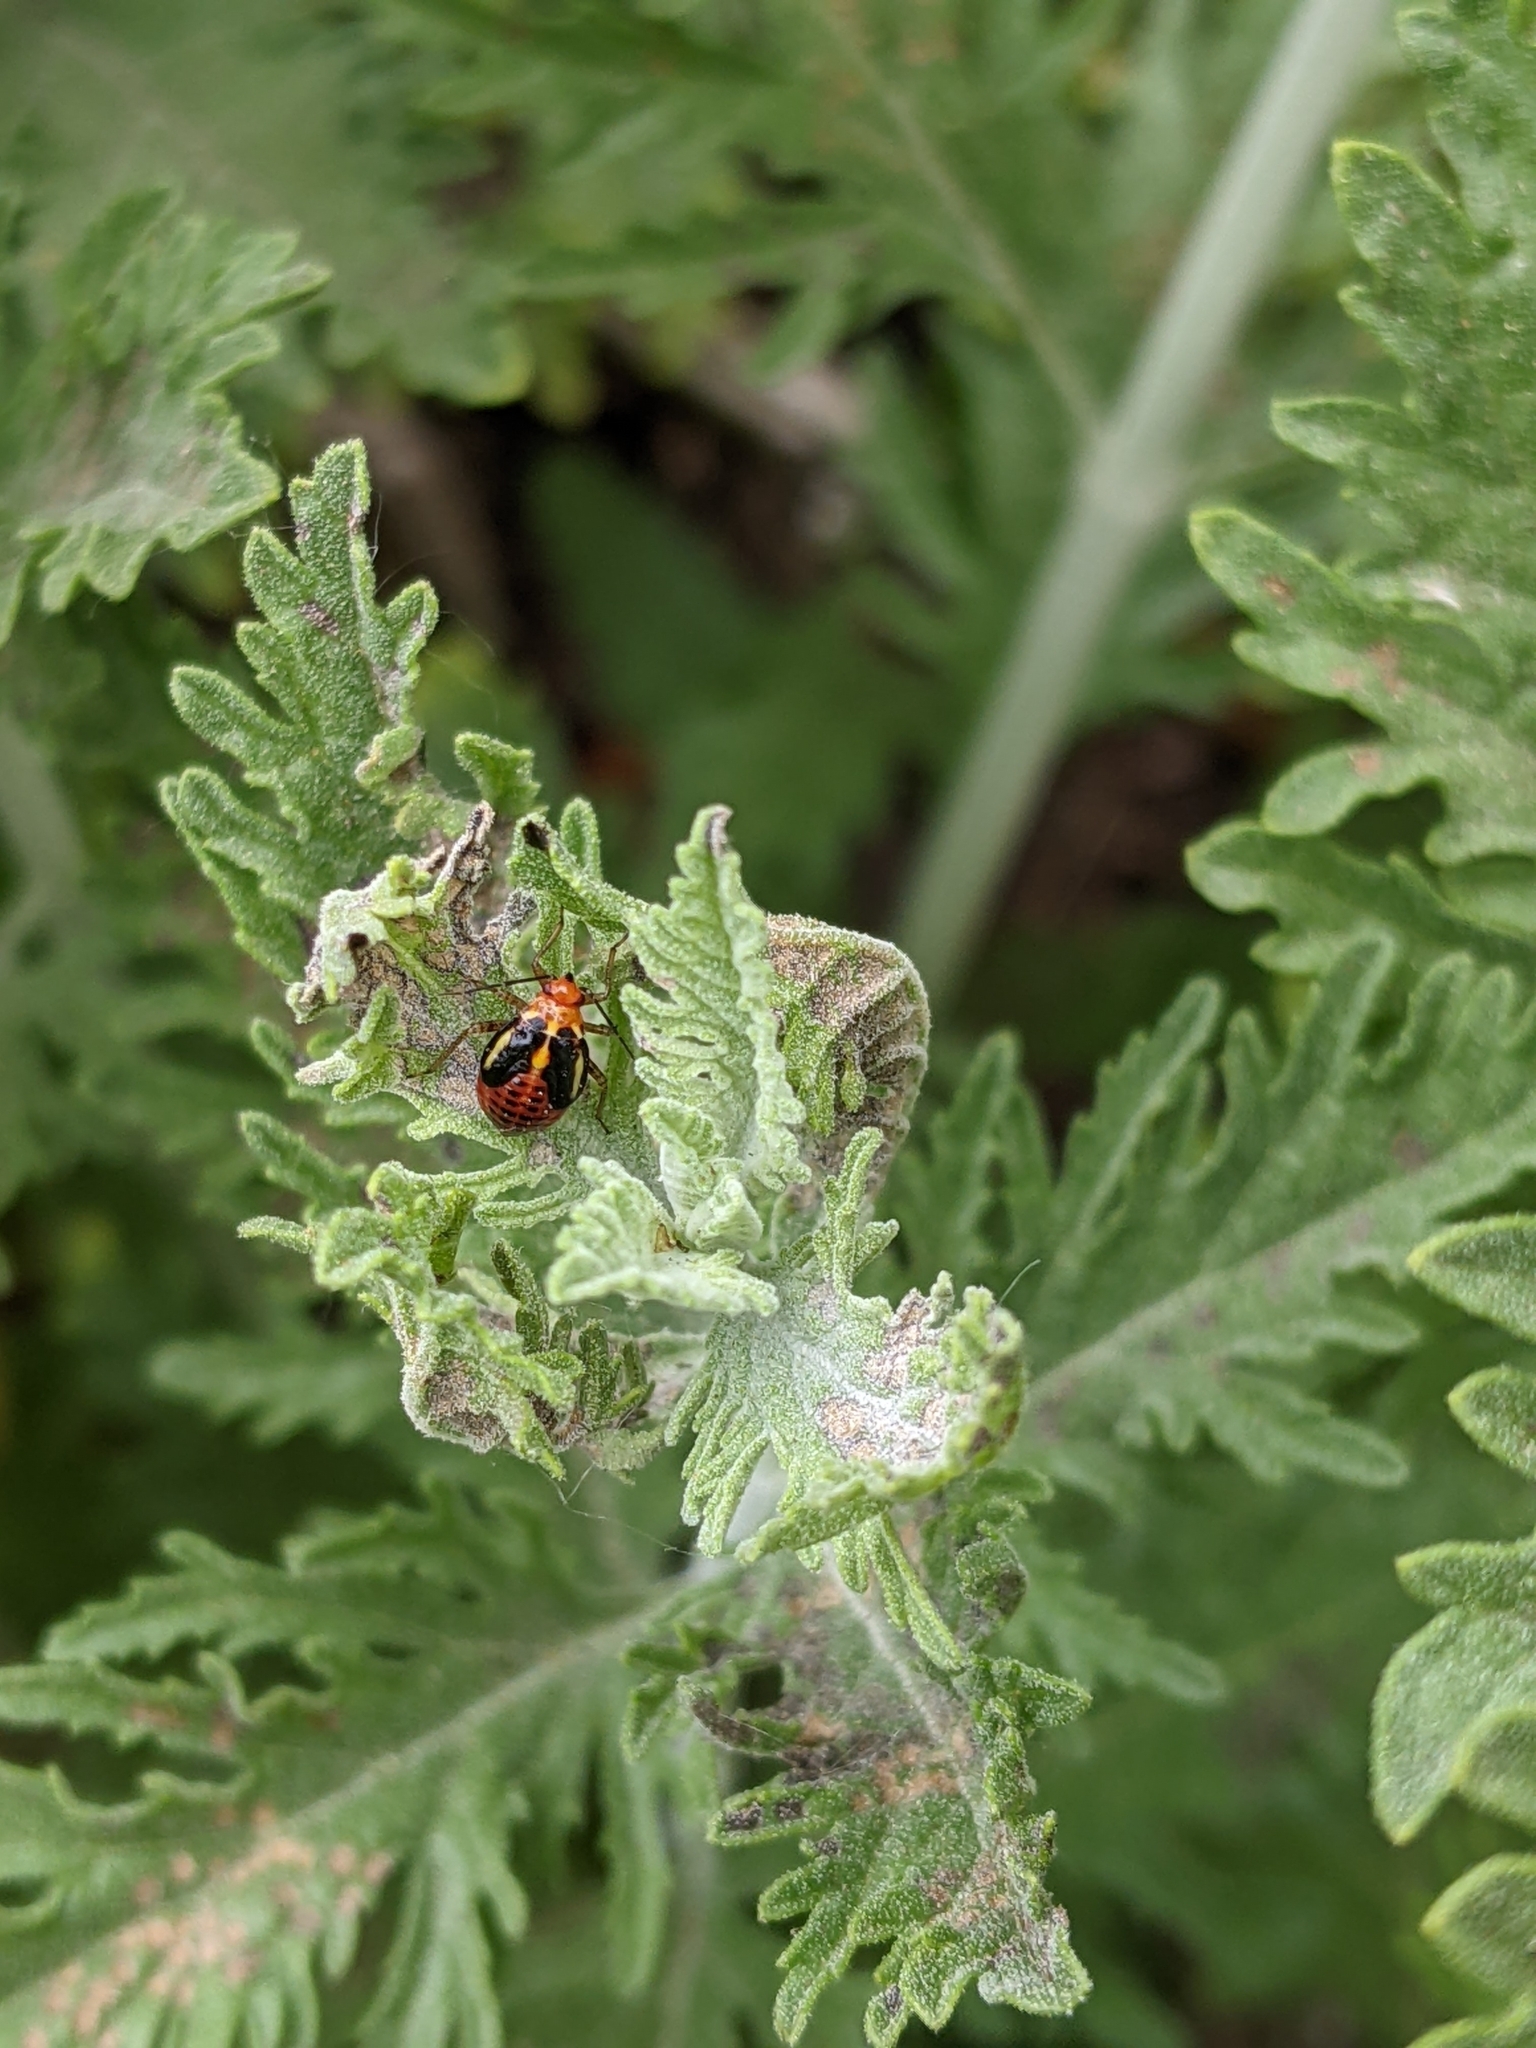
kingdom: Animalia
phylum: Arthropoda
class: Insecta
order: Hemiptera
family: Miridae
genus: Poecilocapsus
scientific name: Poecilocapsus lineatus
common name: Four-lined plant bug
